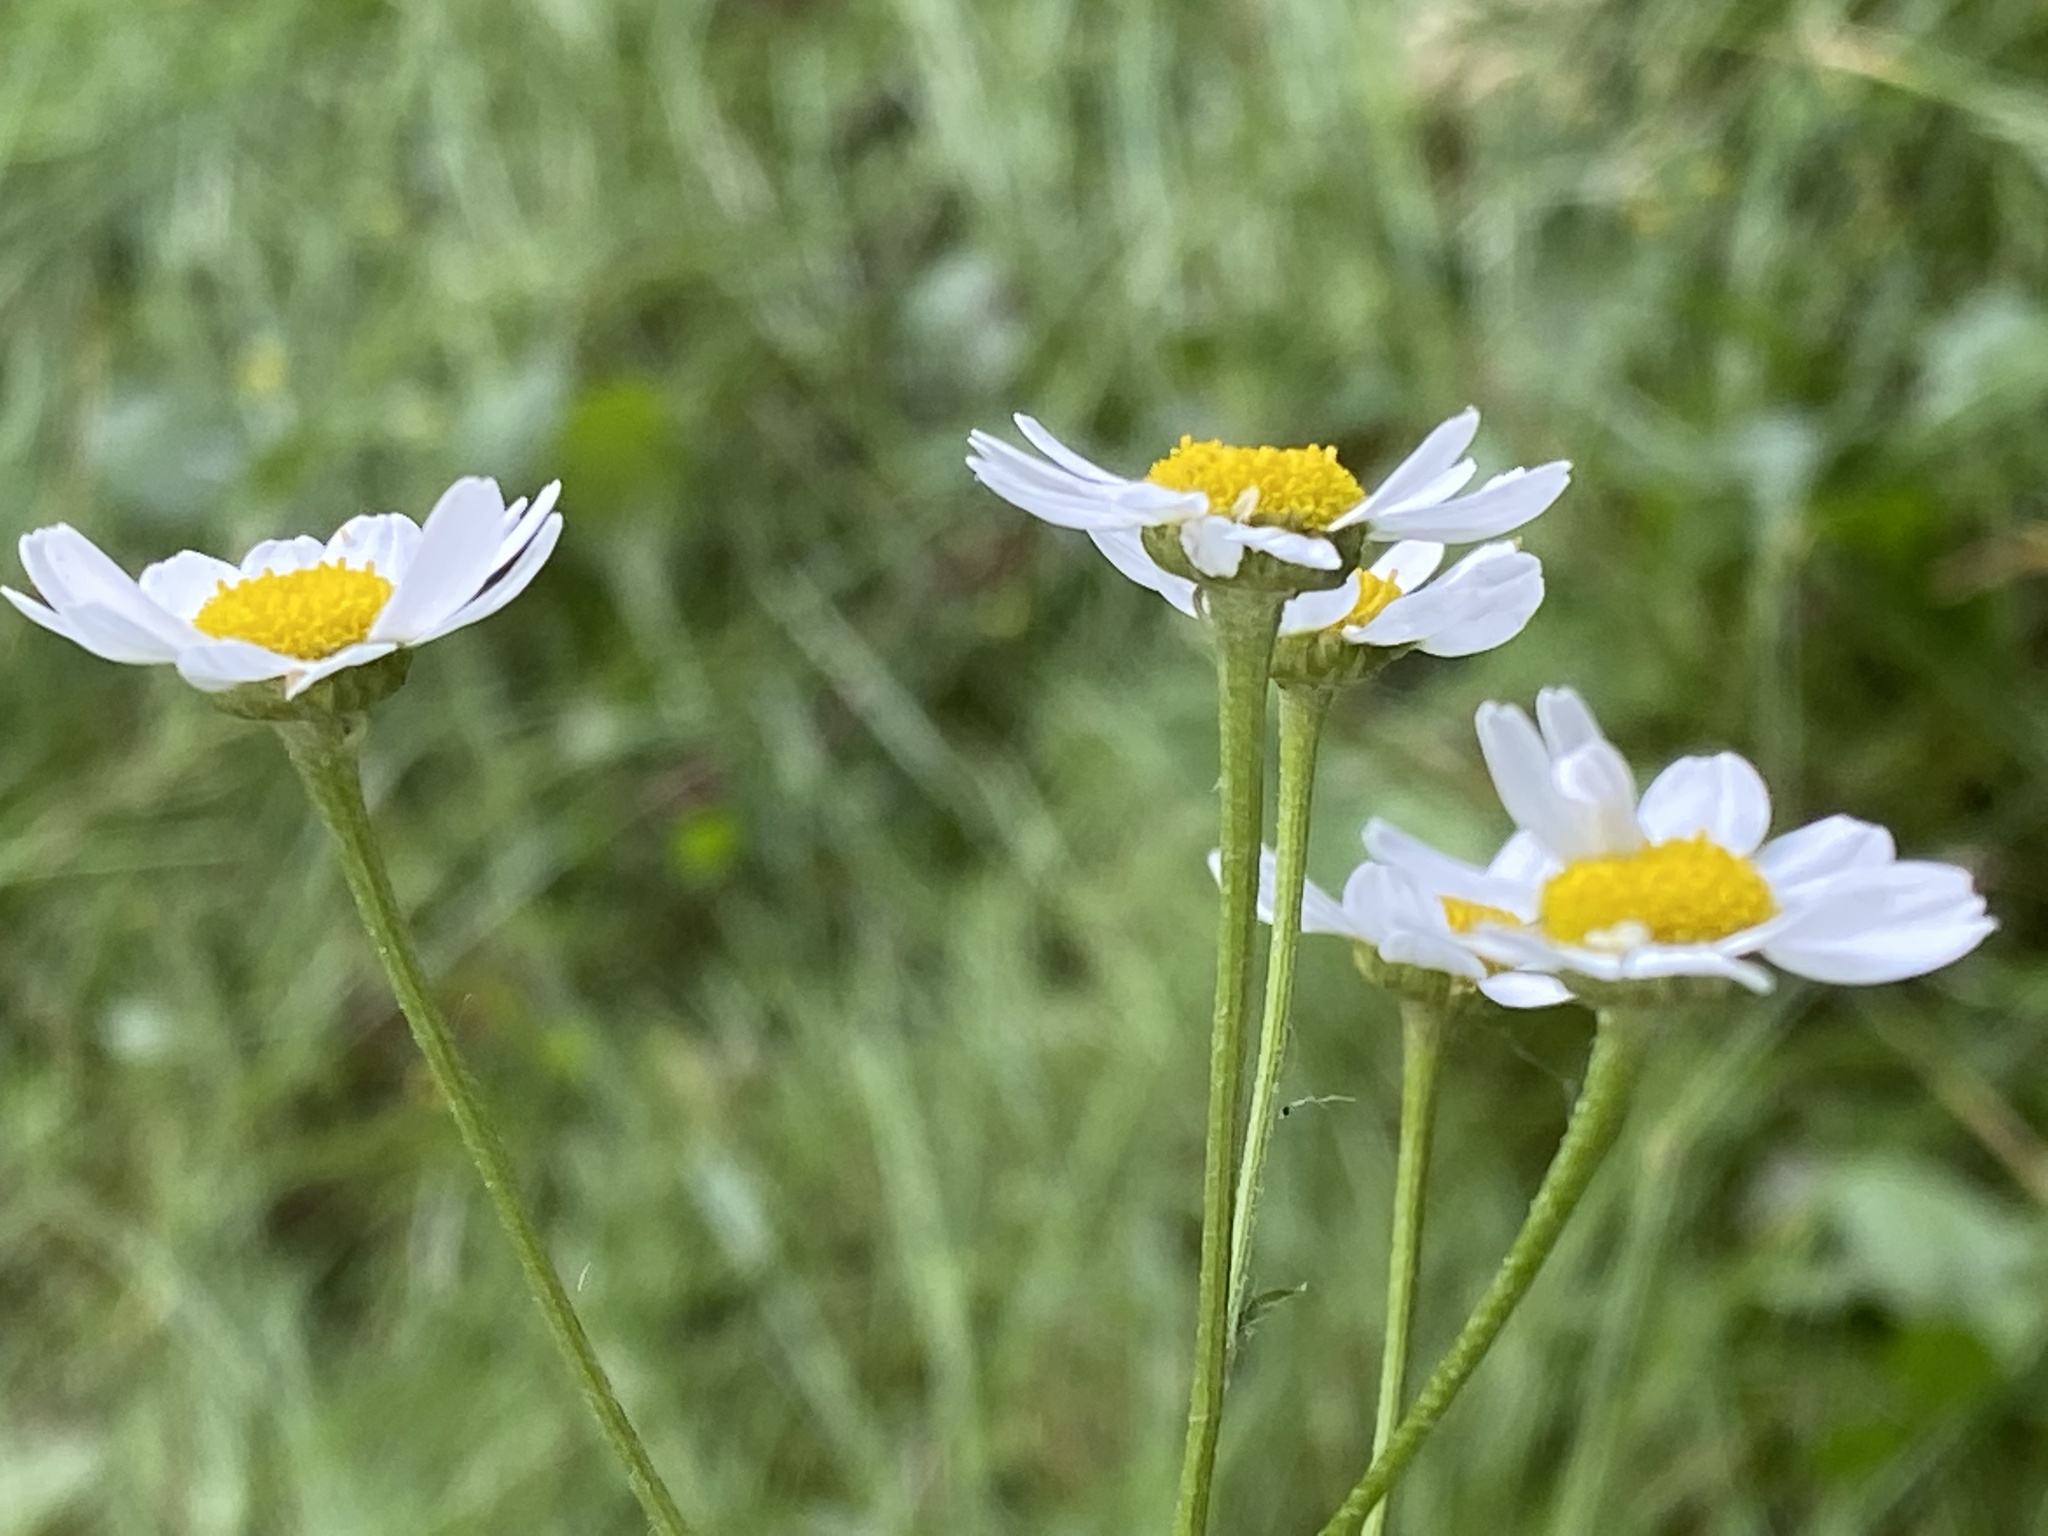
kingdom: Plantae
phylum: Tracheophyta
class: Magnoliopsida
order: Asterales
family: Asteraceae
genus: Tanacetum
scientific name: Tanacetum parthenium
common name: Feverfew
